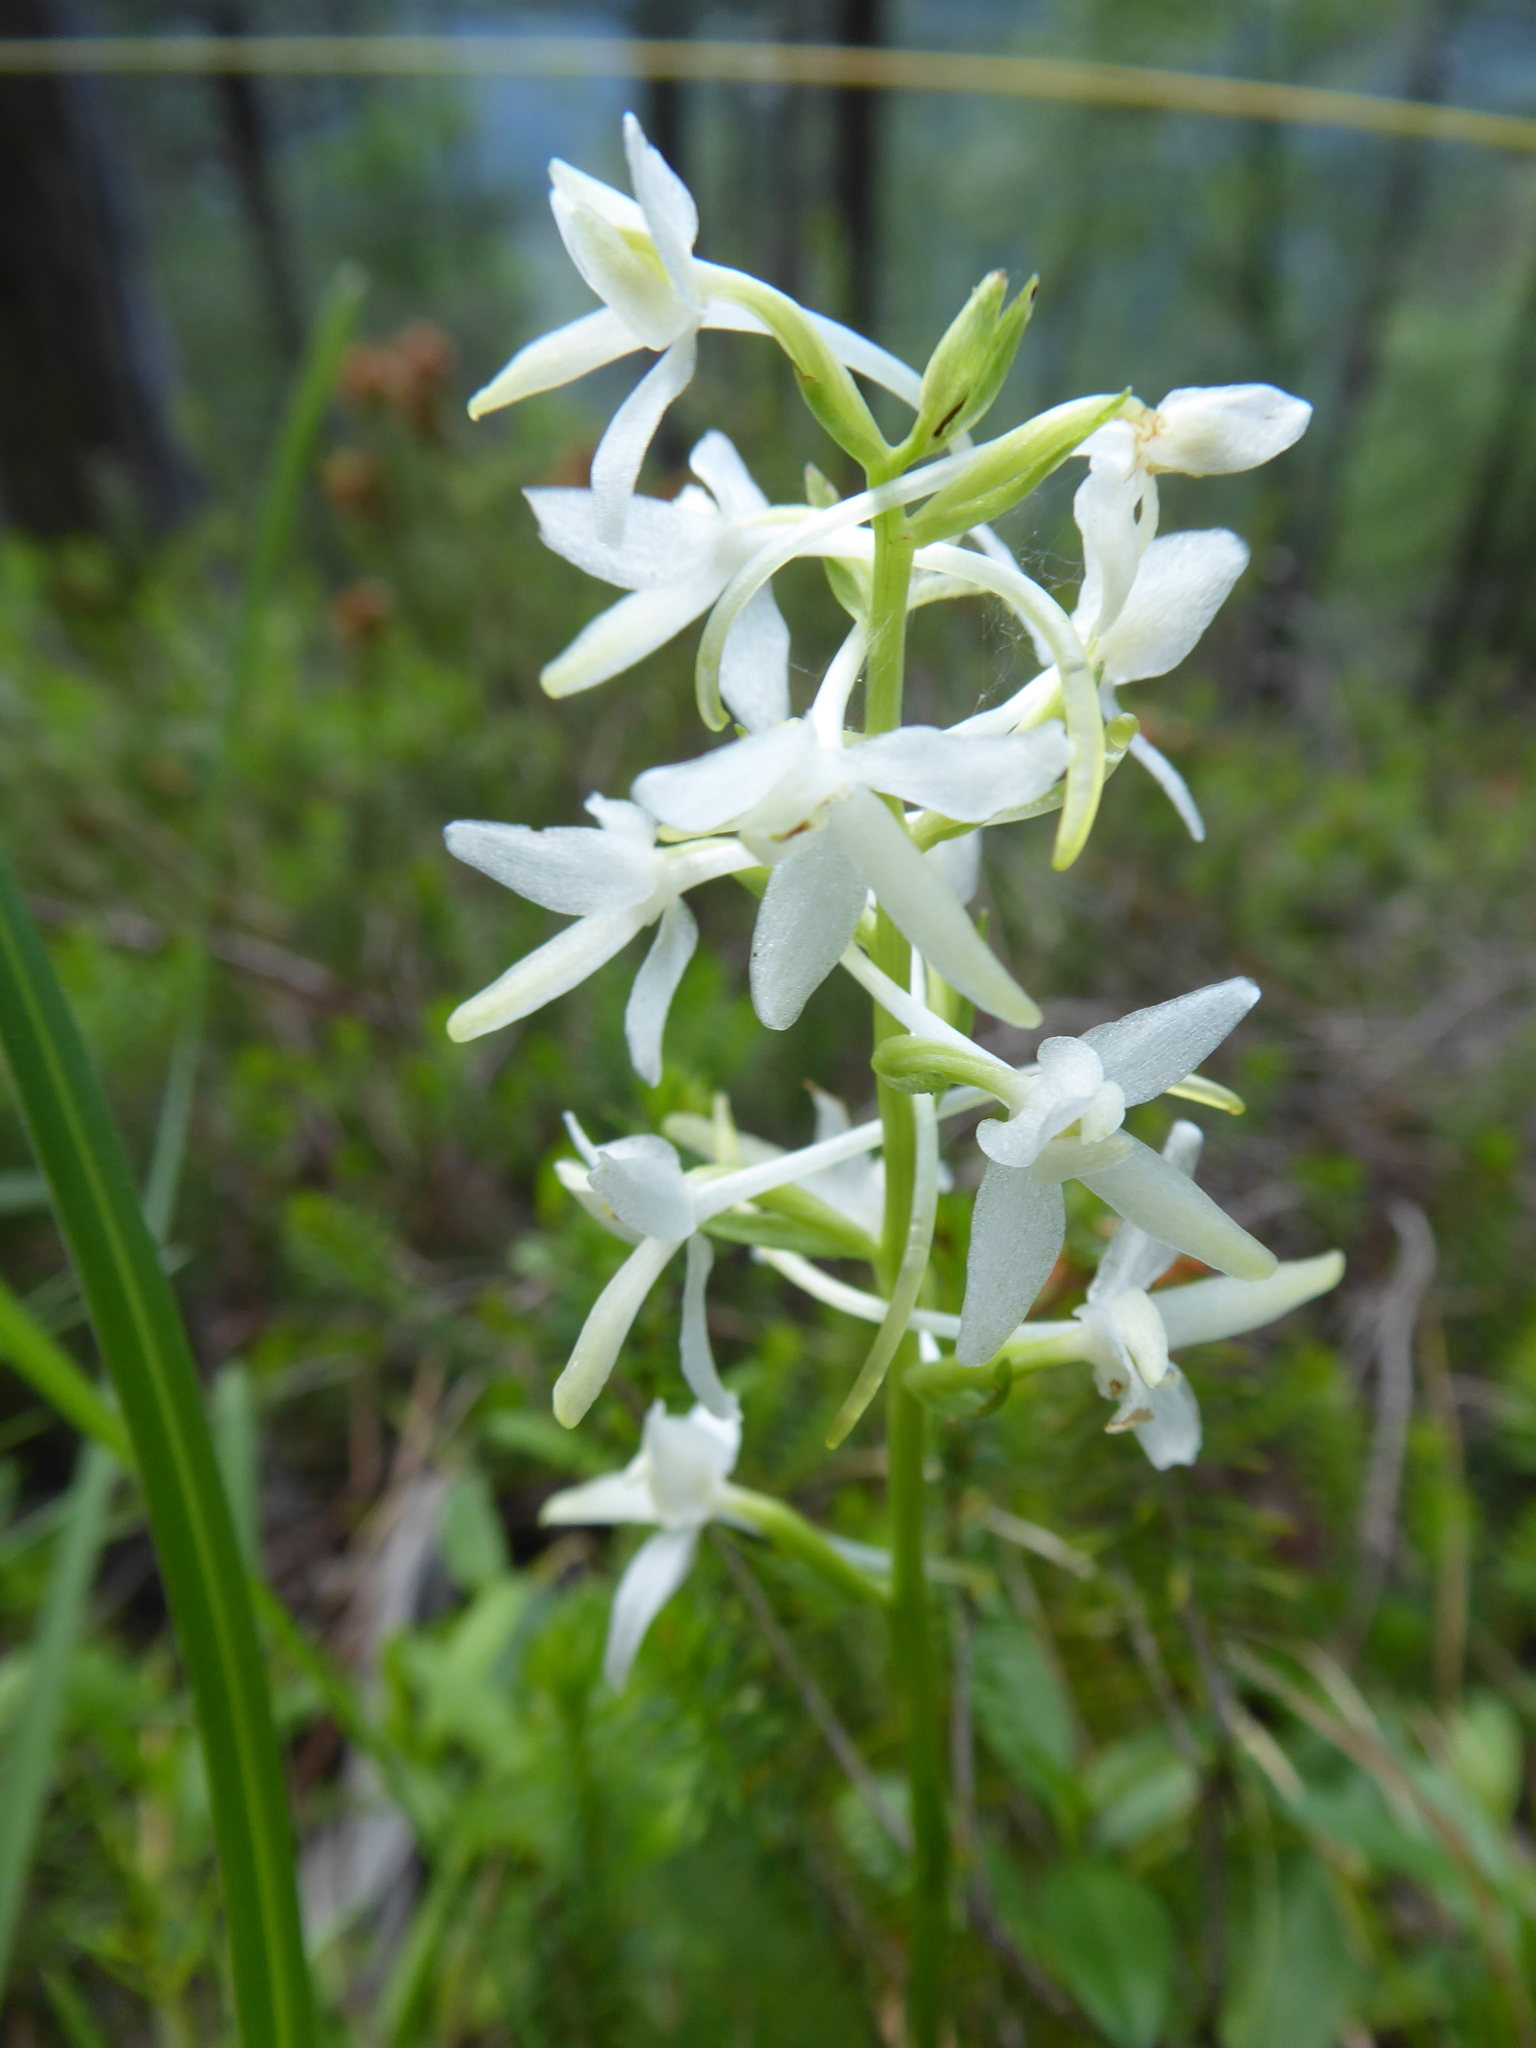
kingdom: Plantae
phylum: Tracheophyta
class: Liliopsida
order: Asparagales
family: Orchidaceae
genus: Platanthera
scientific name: Platanthera bifolia
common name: Lesser butterfly-orchid
